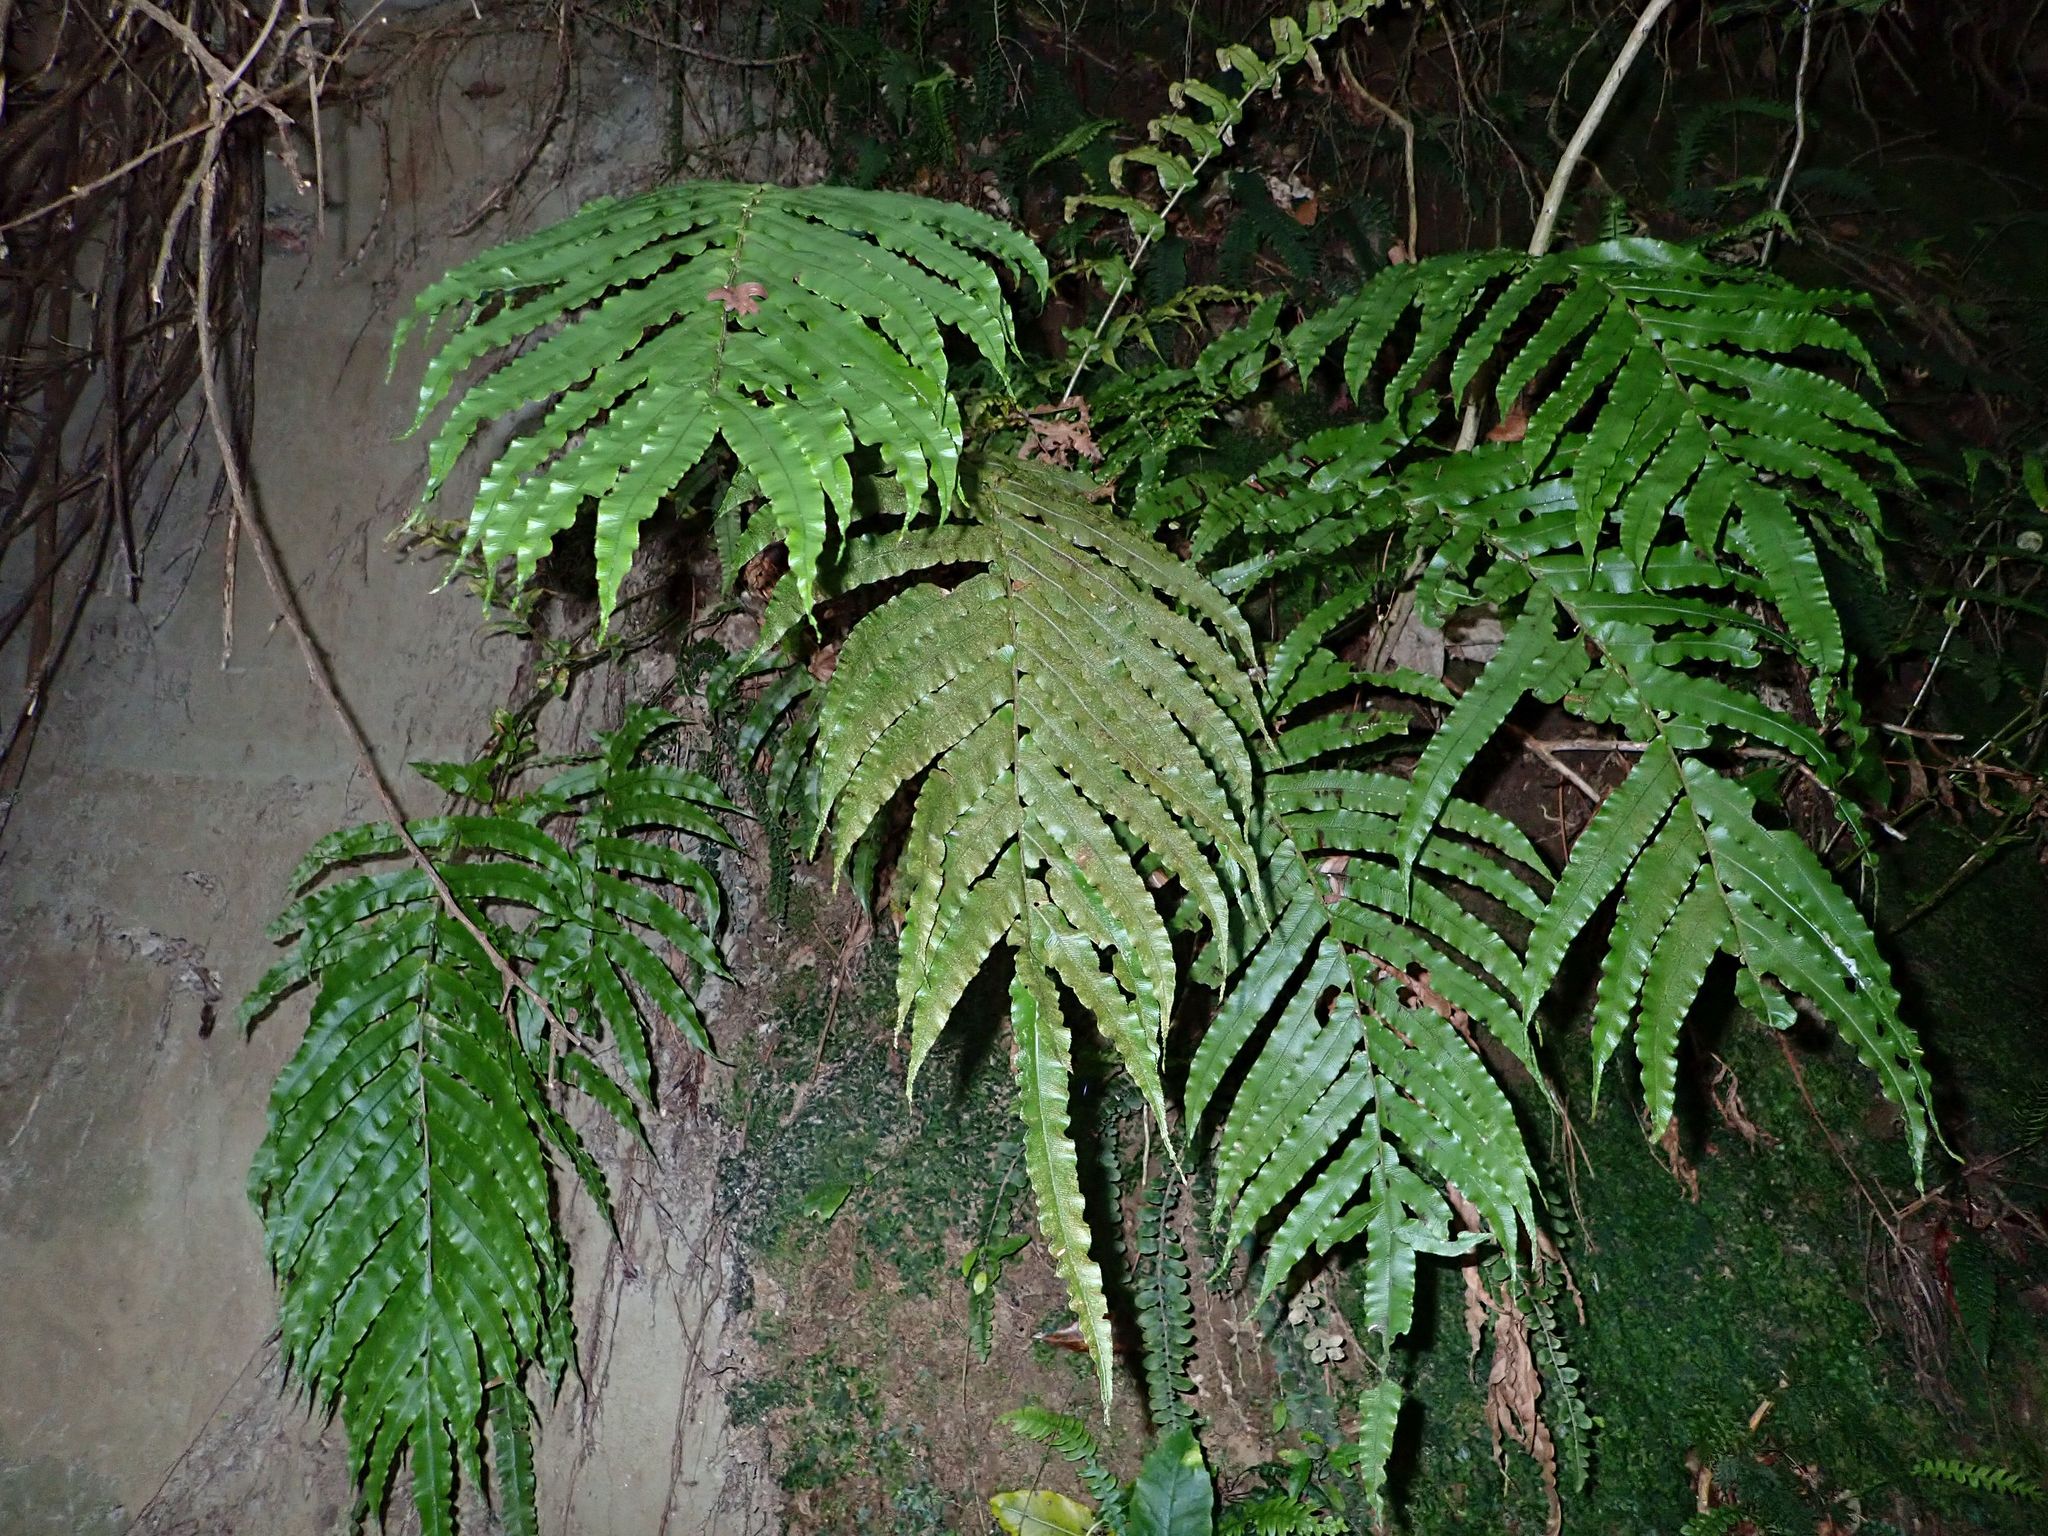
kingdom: Plantae
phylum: Tracheophyta
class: Polypodiopsida
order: Polypodiales
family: Blechnaceae
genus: Parablechnum
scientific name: Parablechnum novae-zelandiae
